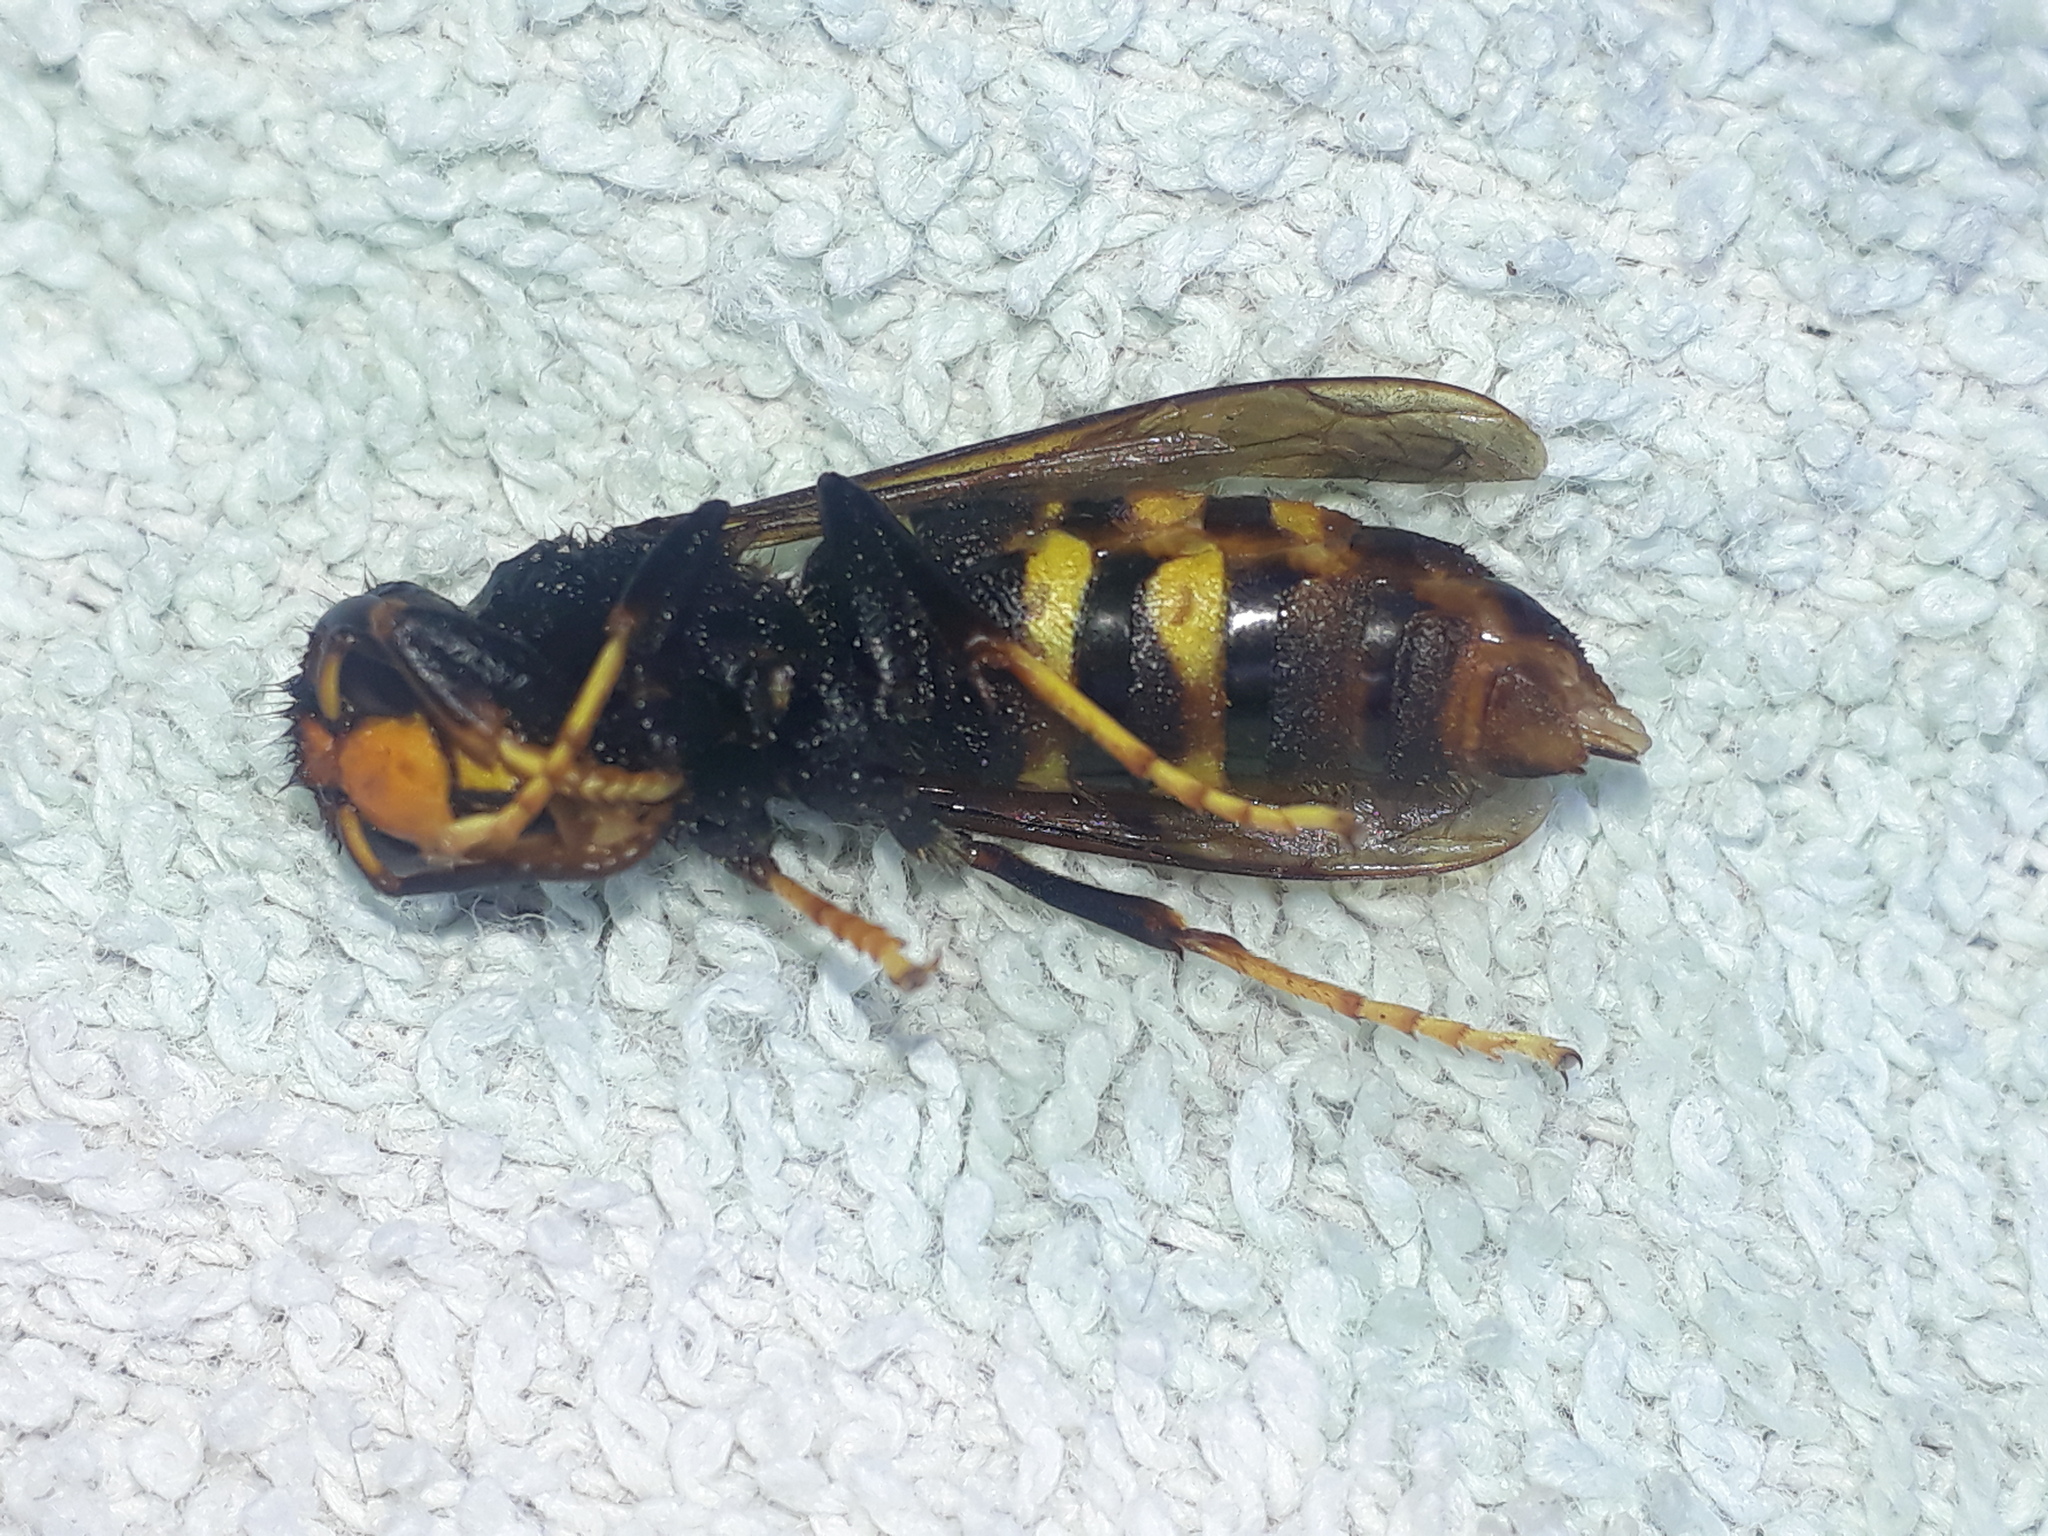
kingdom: Animalia
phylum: Arthropoda
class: Insecta
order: Hymenoptera
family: Vespidae
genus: Vespa
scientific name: Vespa velutina
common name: Asian hornet
